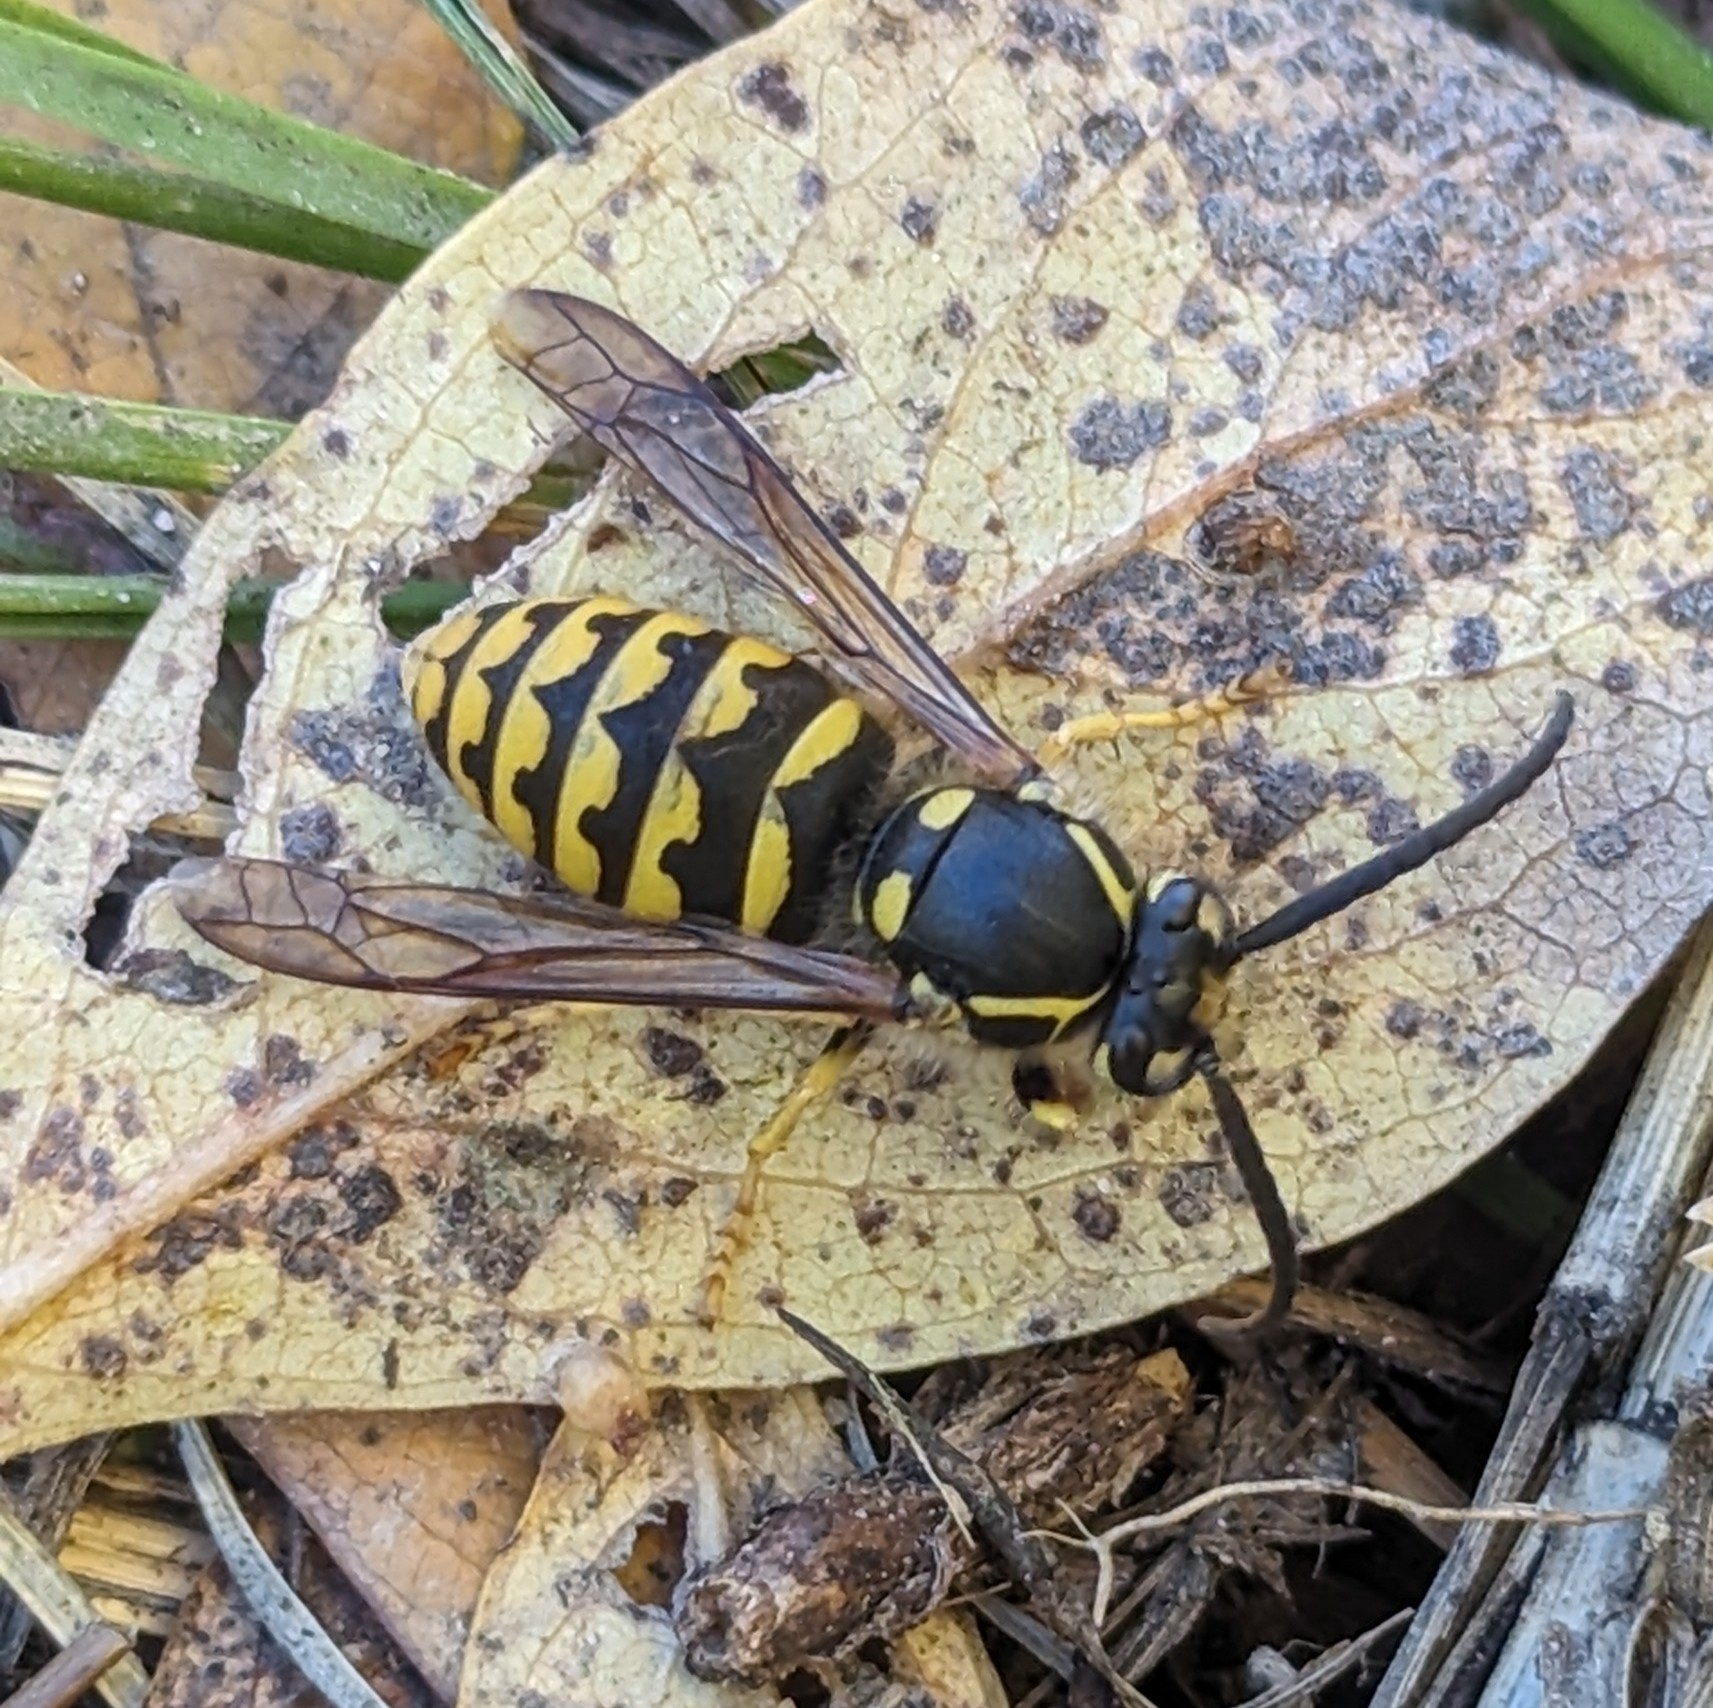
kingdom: Animalia
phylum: Arthropoda
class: Insecta
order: Hymenoptera
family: Vespidae
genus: Dolichovespula
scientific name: Dolichovespula arenaria
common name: Aerial yellowjacket
